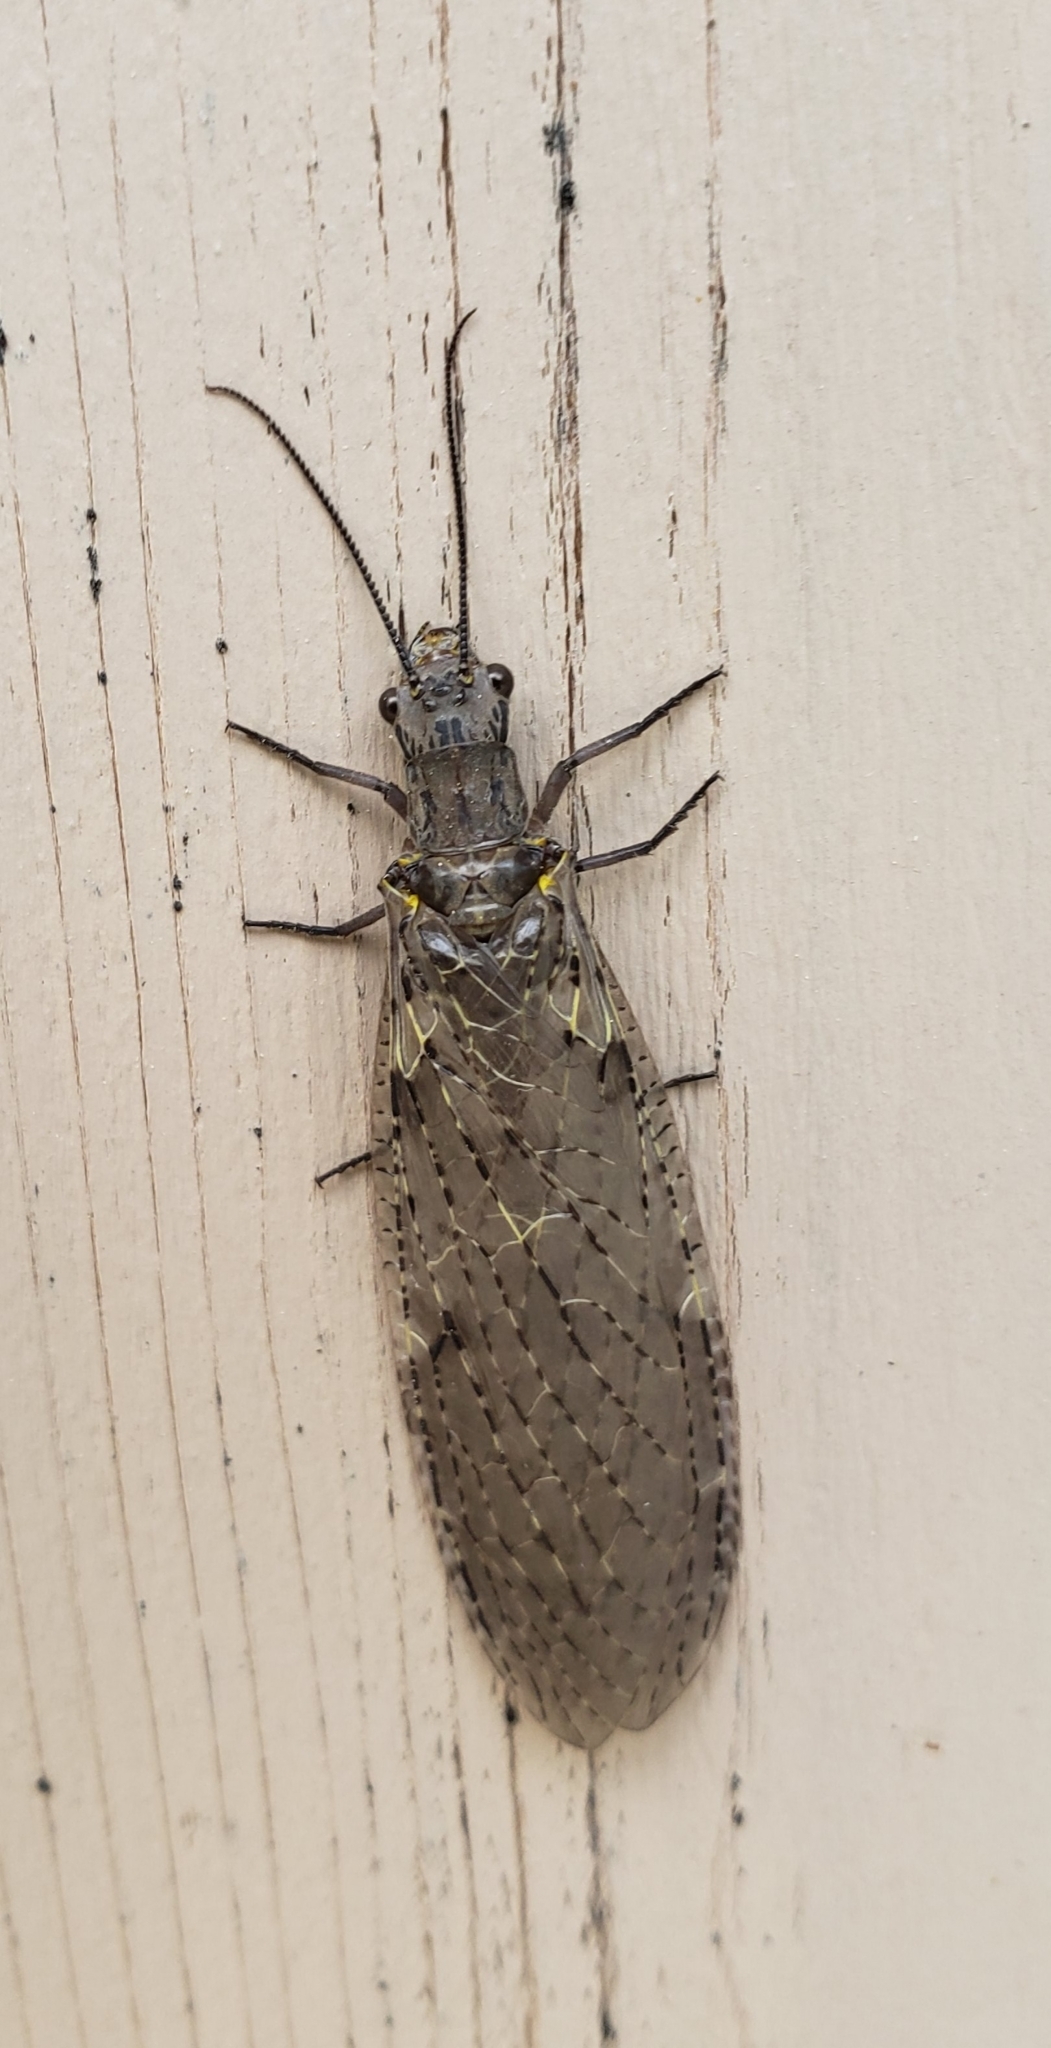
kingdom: Animalia
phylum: Arthropoda
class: Insecta
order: Megaloptera
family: Corydalidae
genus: Chauliodes
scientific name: Chauliodes rastricornis
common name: Spring fishfly
